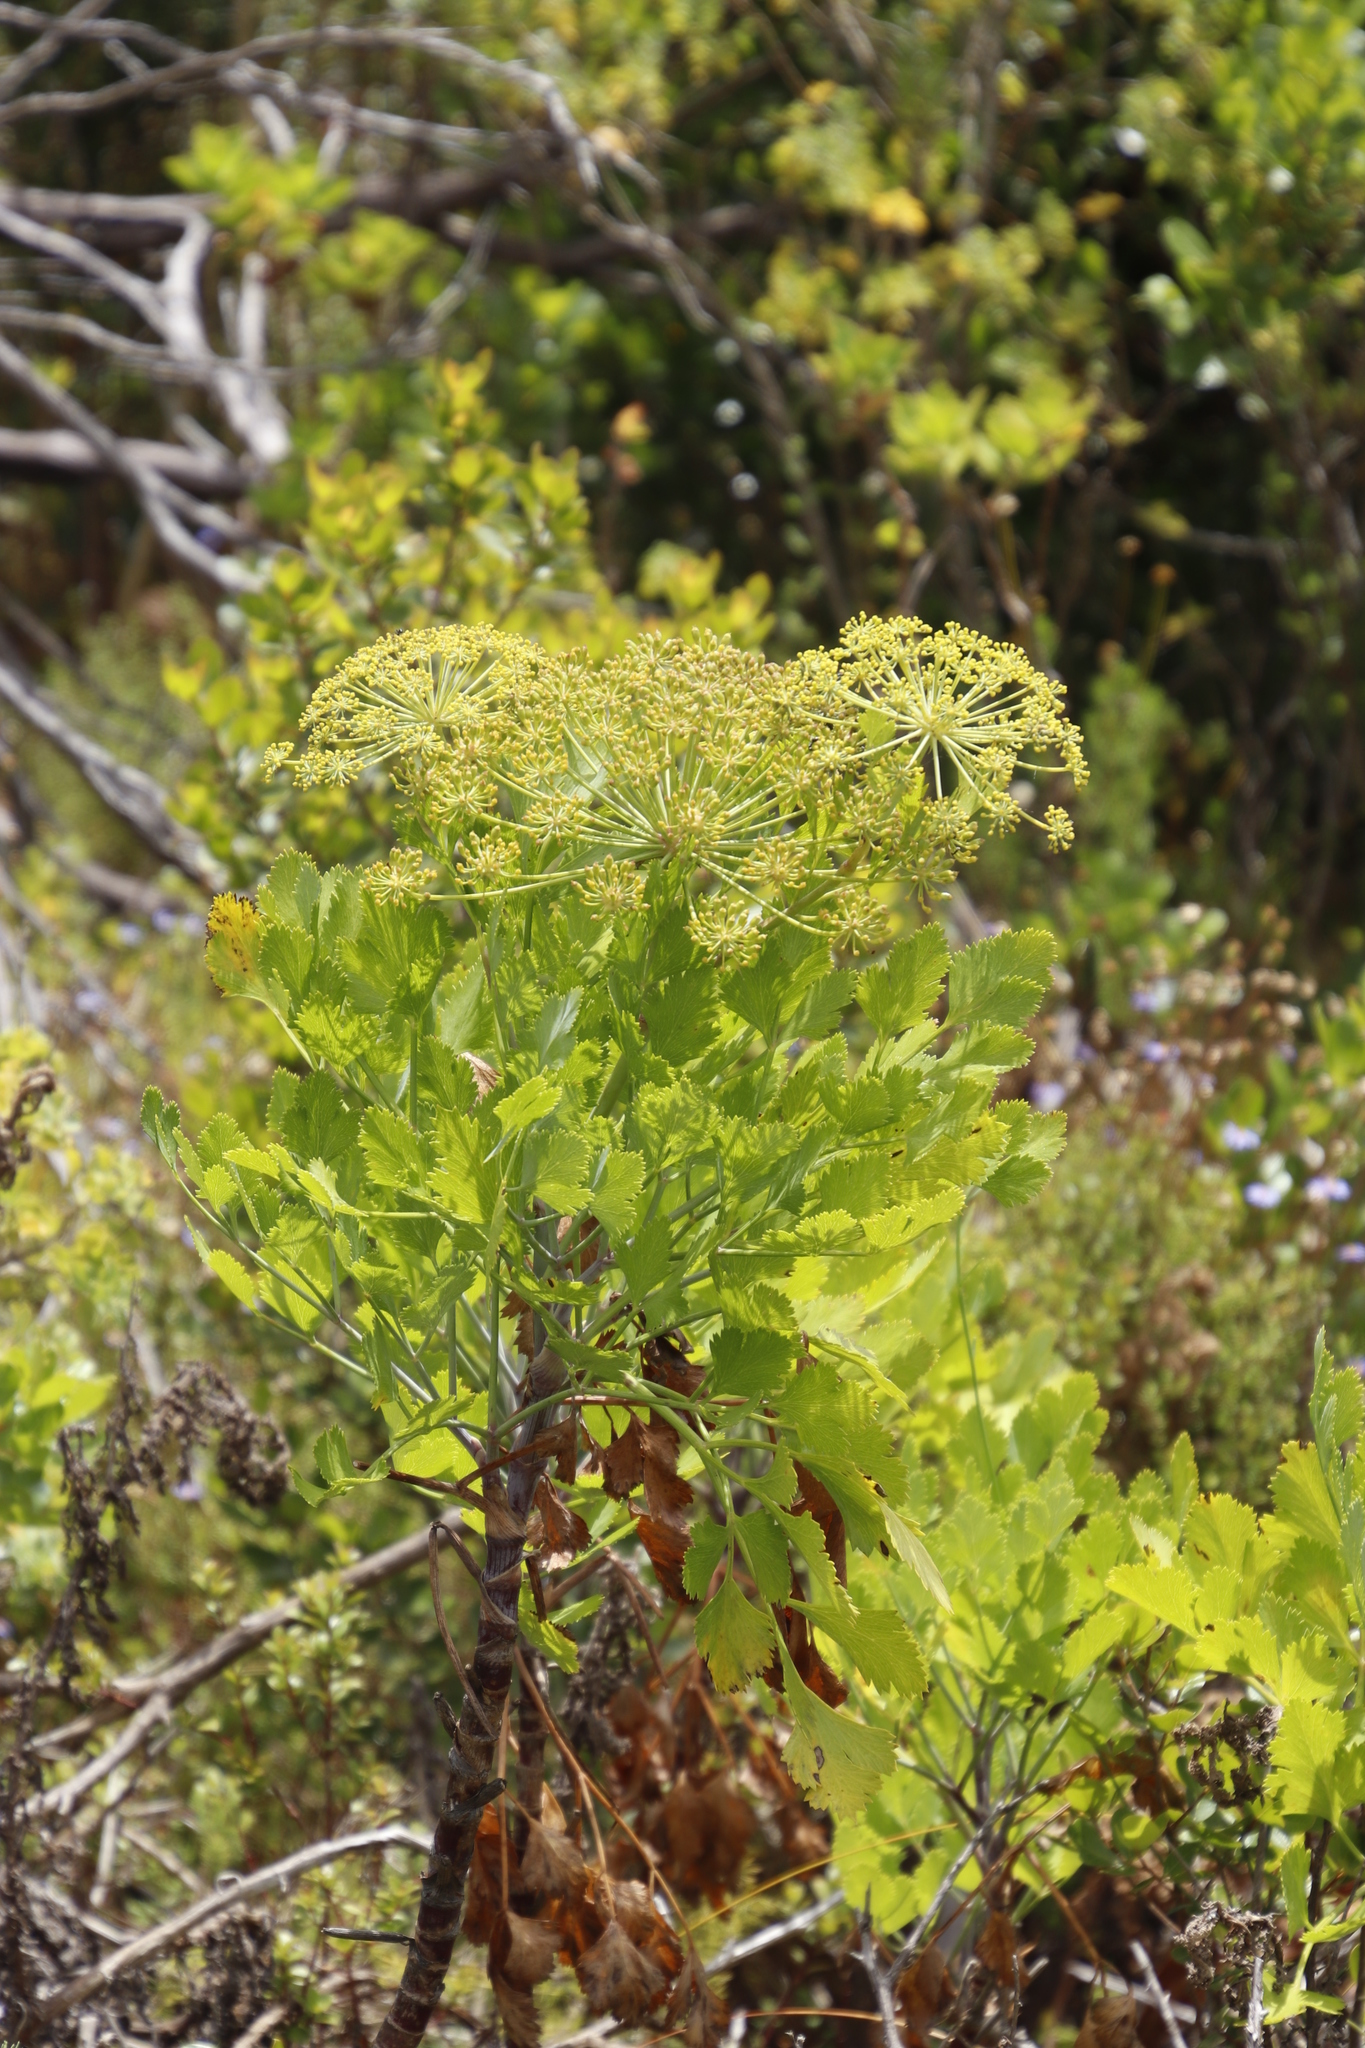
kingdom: Plantae
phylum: Tracheophyta
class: Magnoliopsida
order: Apiales
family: Apiaceae
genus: Notobubon
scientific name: Notobubon galbanum
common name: Blisterbush
